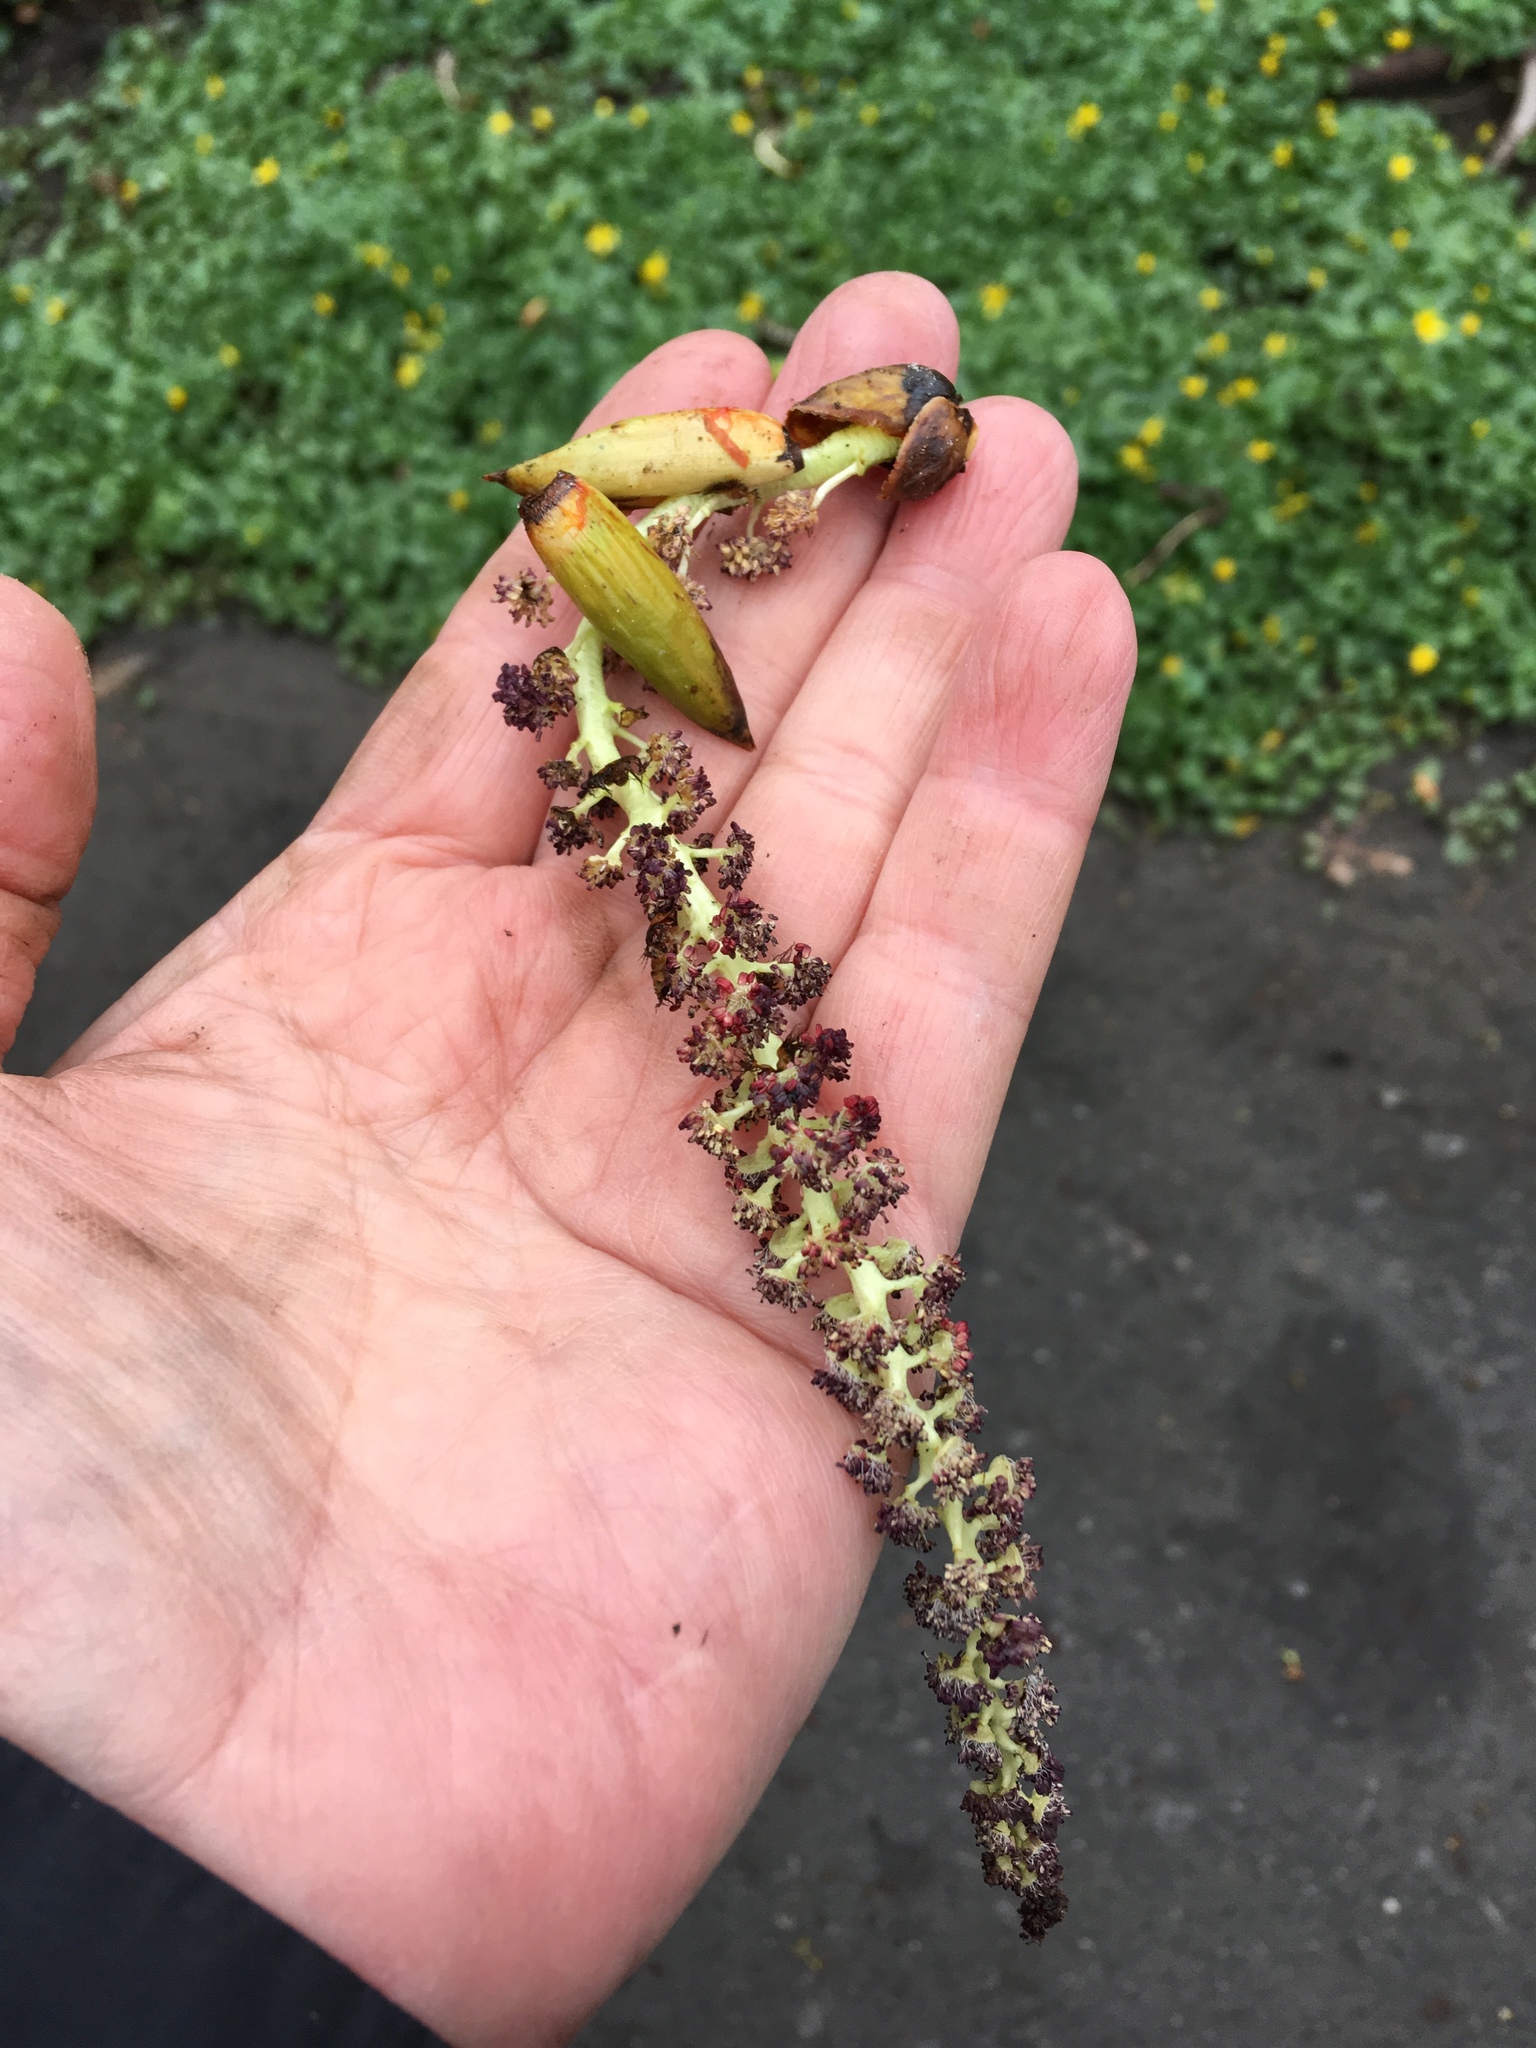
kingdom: Plantae
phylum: Tracheophyta
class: Magnoliopsida
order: Malpighiales
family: Salicaceae
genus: Populus
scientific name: Populus deltoides
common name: Eastern cottonwood
